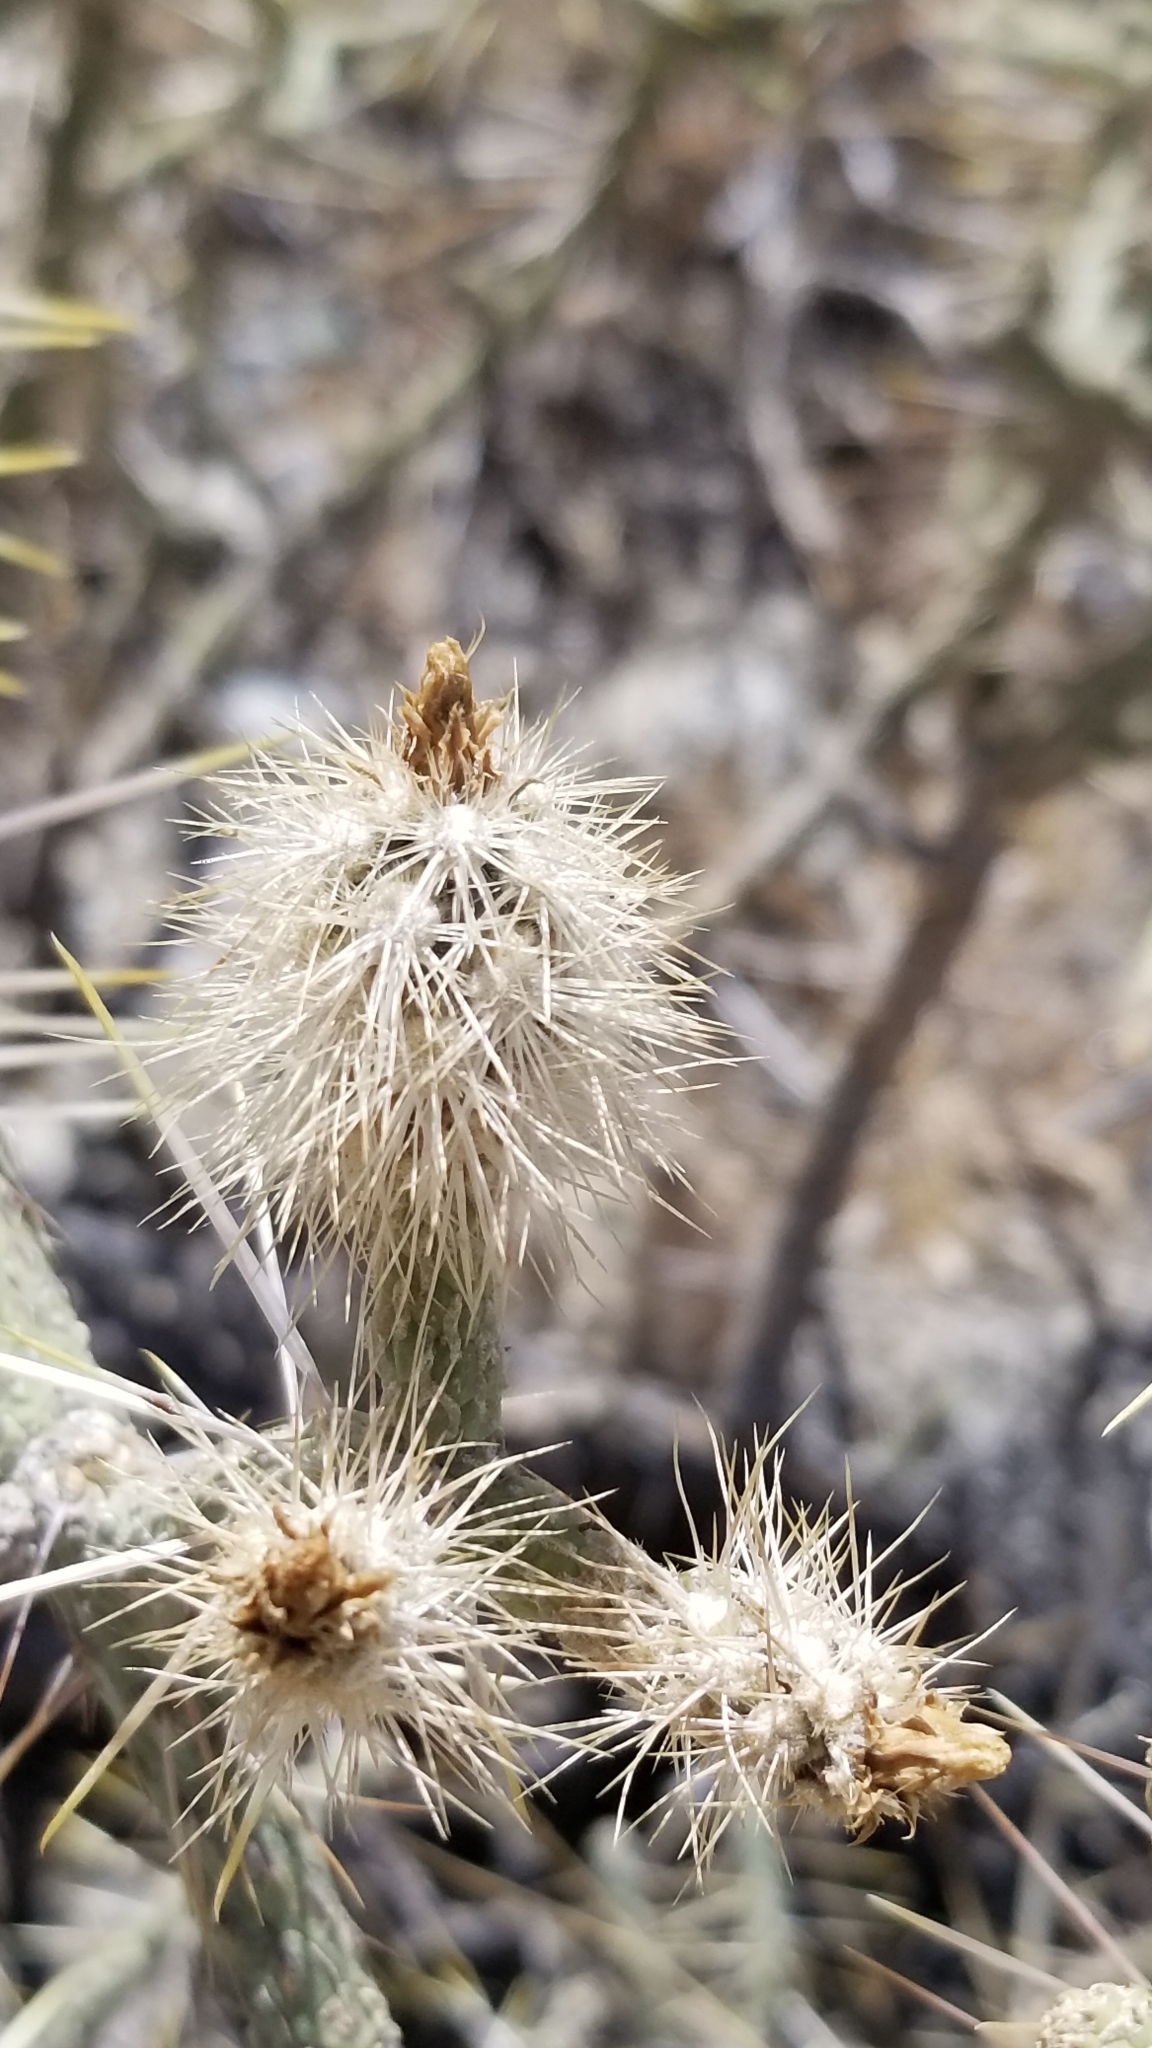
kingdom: Plantae
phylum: Tracheophyta
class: Magnoliopsida
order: Caryophyllales
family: Cactaceae
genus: Cylindropuntia
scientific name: Cylindropuntia ramosissima
